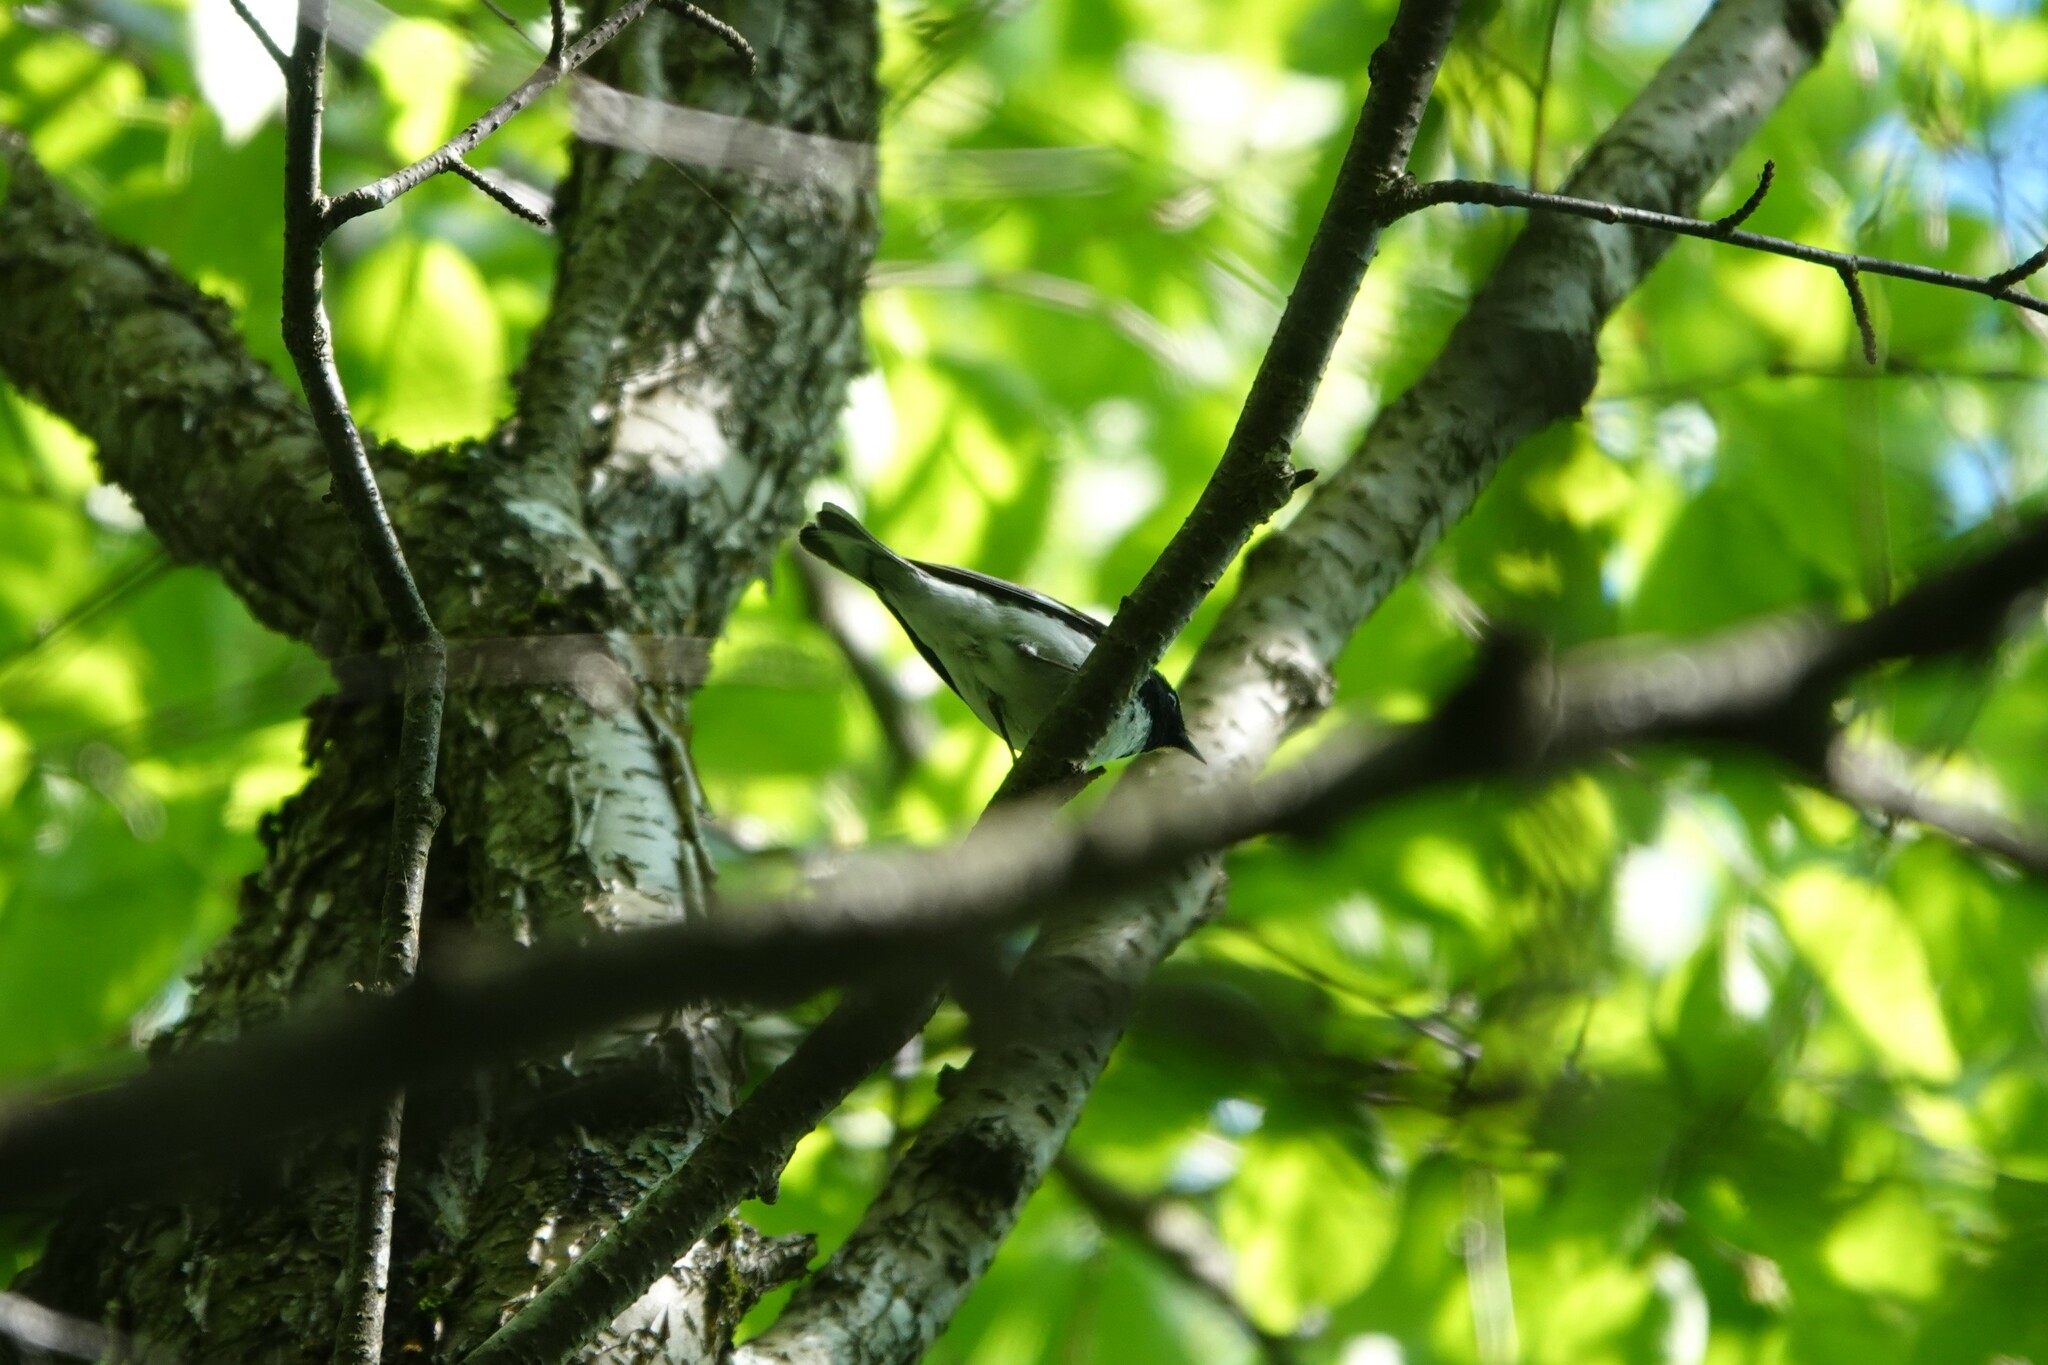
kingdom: Animalia
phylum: Chordata
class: Aves
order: Passeriformes
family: Parulidae
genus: Setophaga
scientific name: Setophaga caerulescens
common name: Black-throated blue warbler
